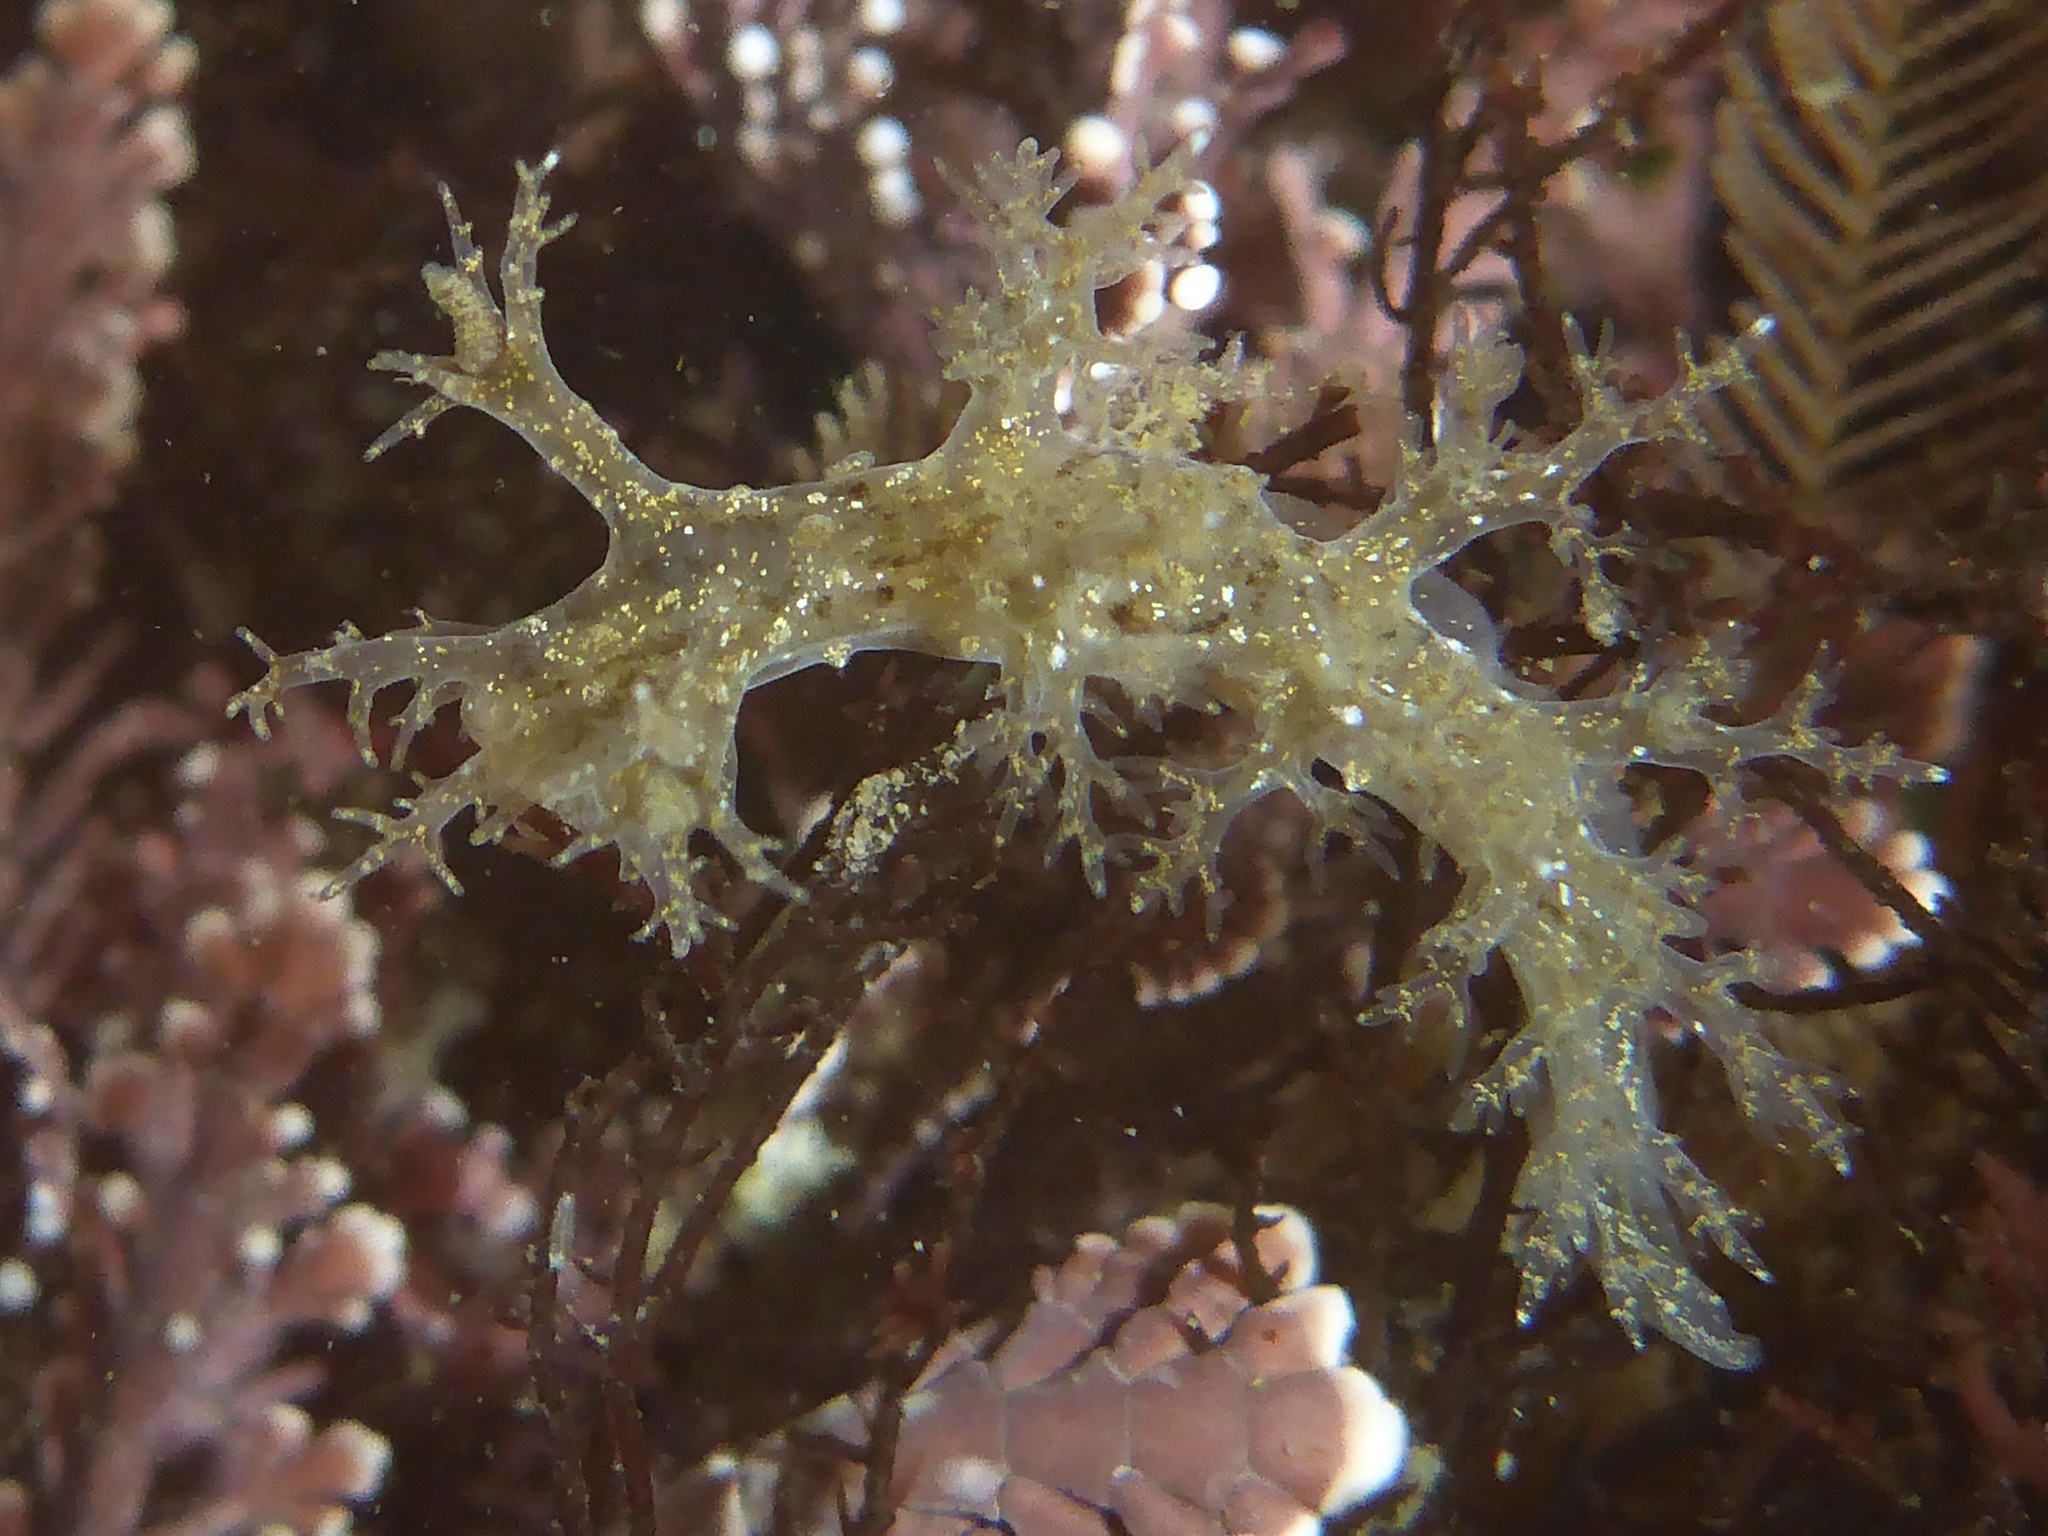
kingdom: Animalia
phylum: Mollusca
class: Gastropoda
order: Nudibranchia
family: Dendronotidae
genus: Dendronotus
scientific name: Dendronotus venustus
